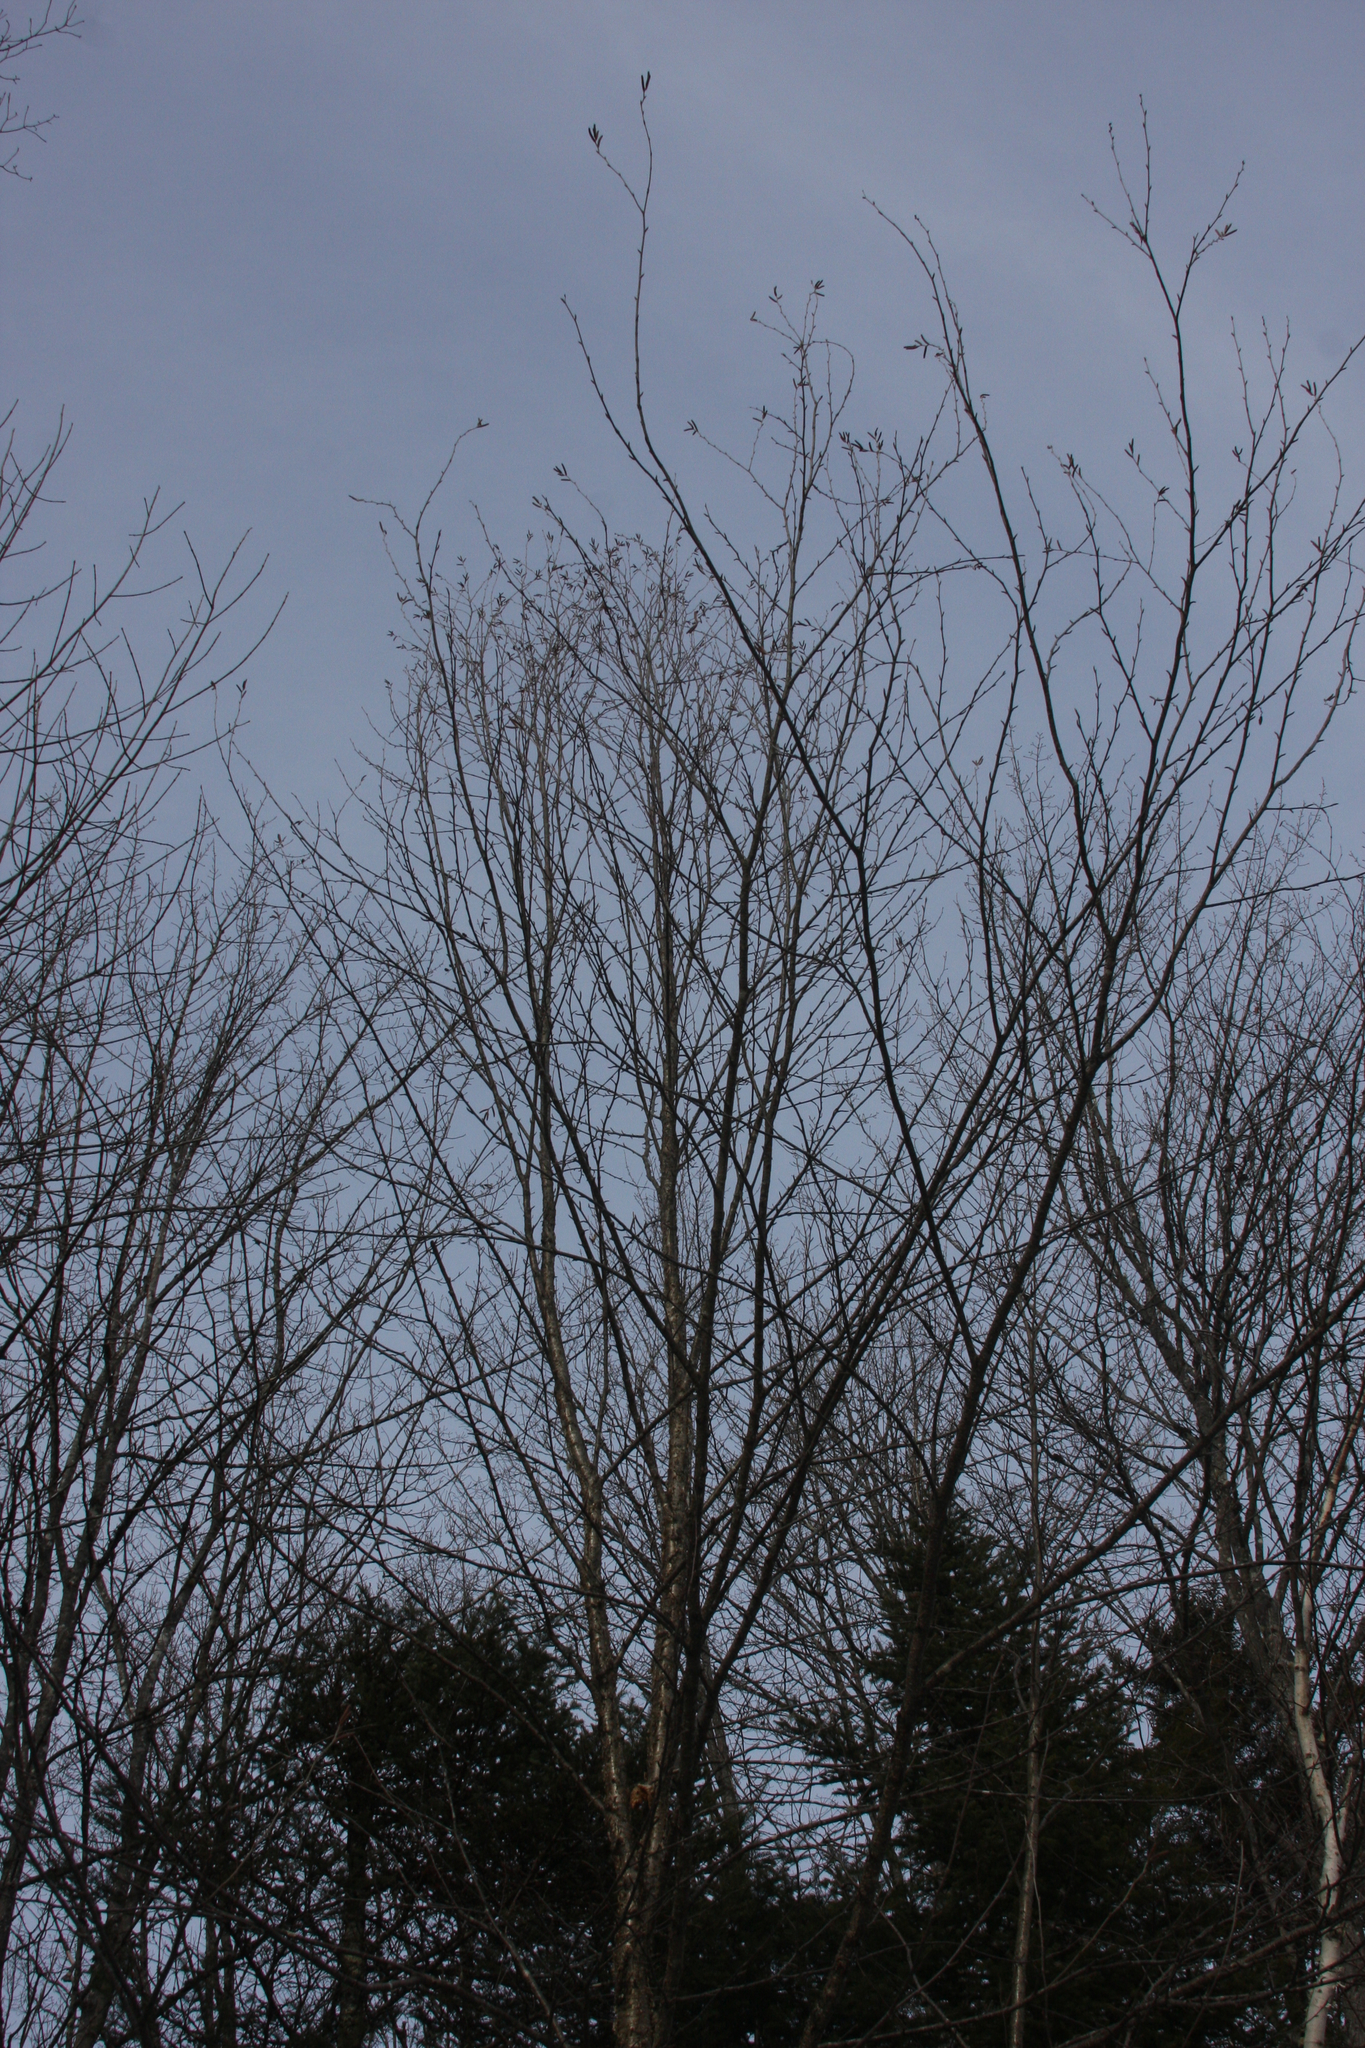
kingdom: Plantae
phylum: Tracheophyta
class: Magnoliopsida
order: Fagales
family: Betulaceae
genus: Betula
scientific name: Betula alleghaniensis
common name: Yellow birch
